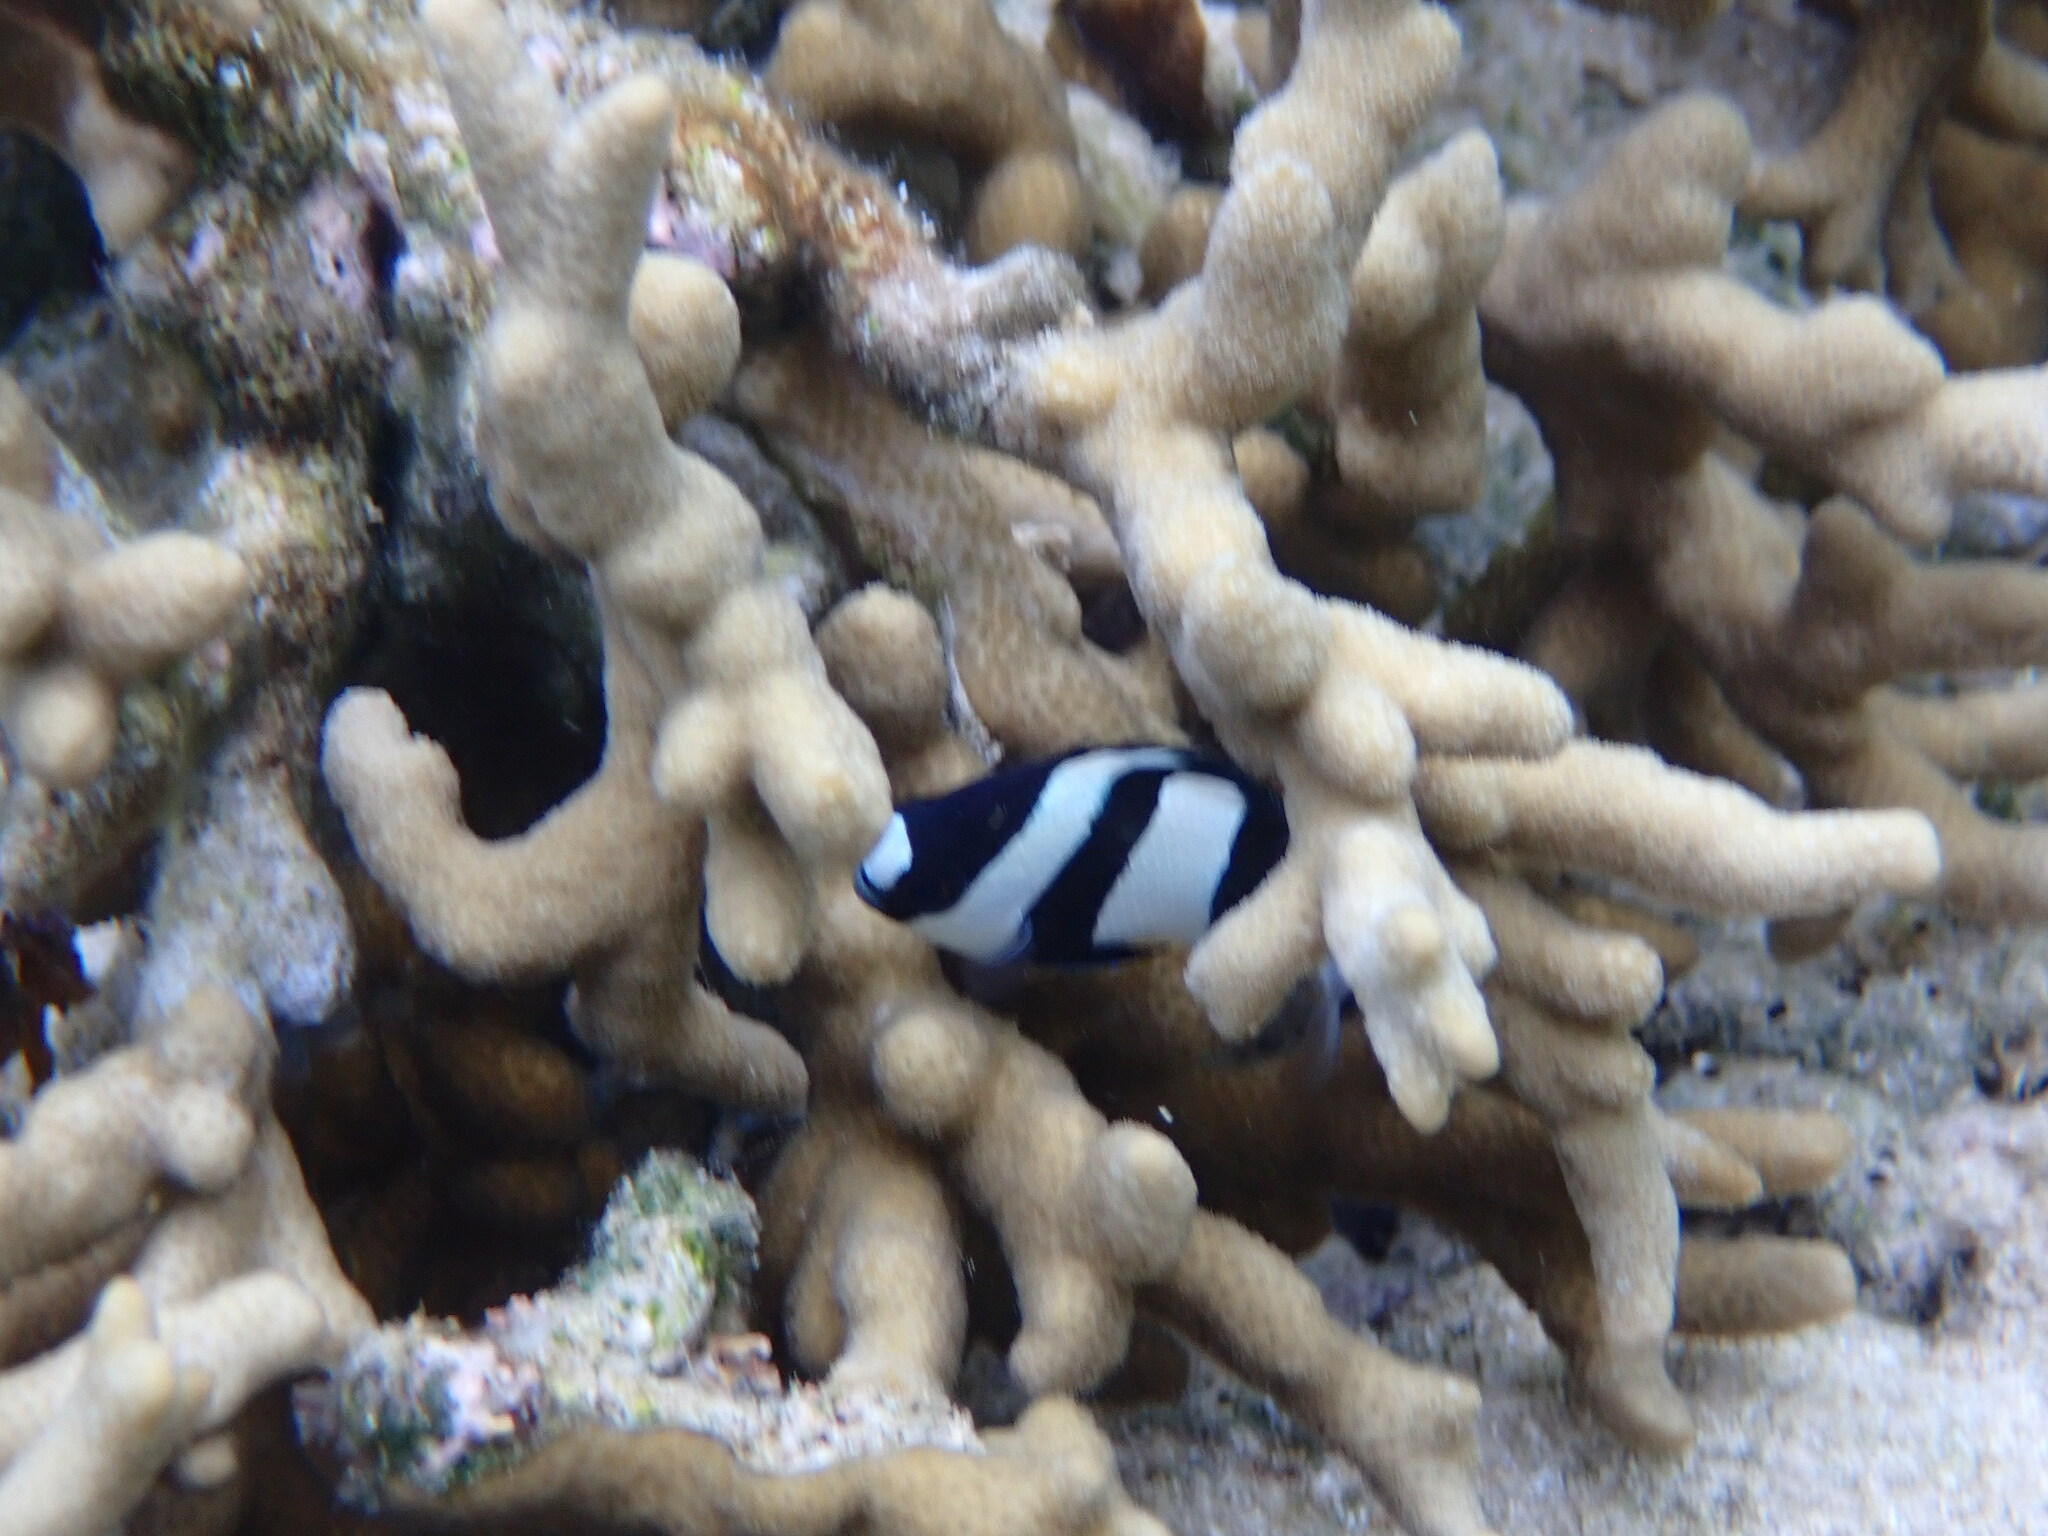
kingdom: Animalia
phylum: Chordata
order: Perciformes
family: Pomacentridae
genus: Dascyllus
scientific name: Dascyllus aruanus
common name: Humbug dascyllus
